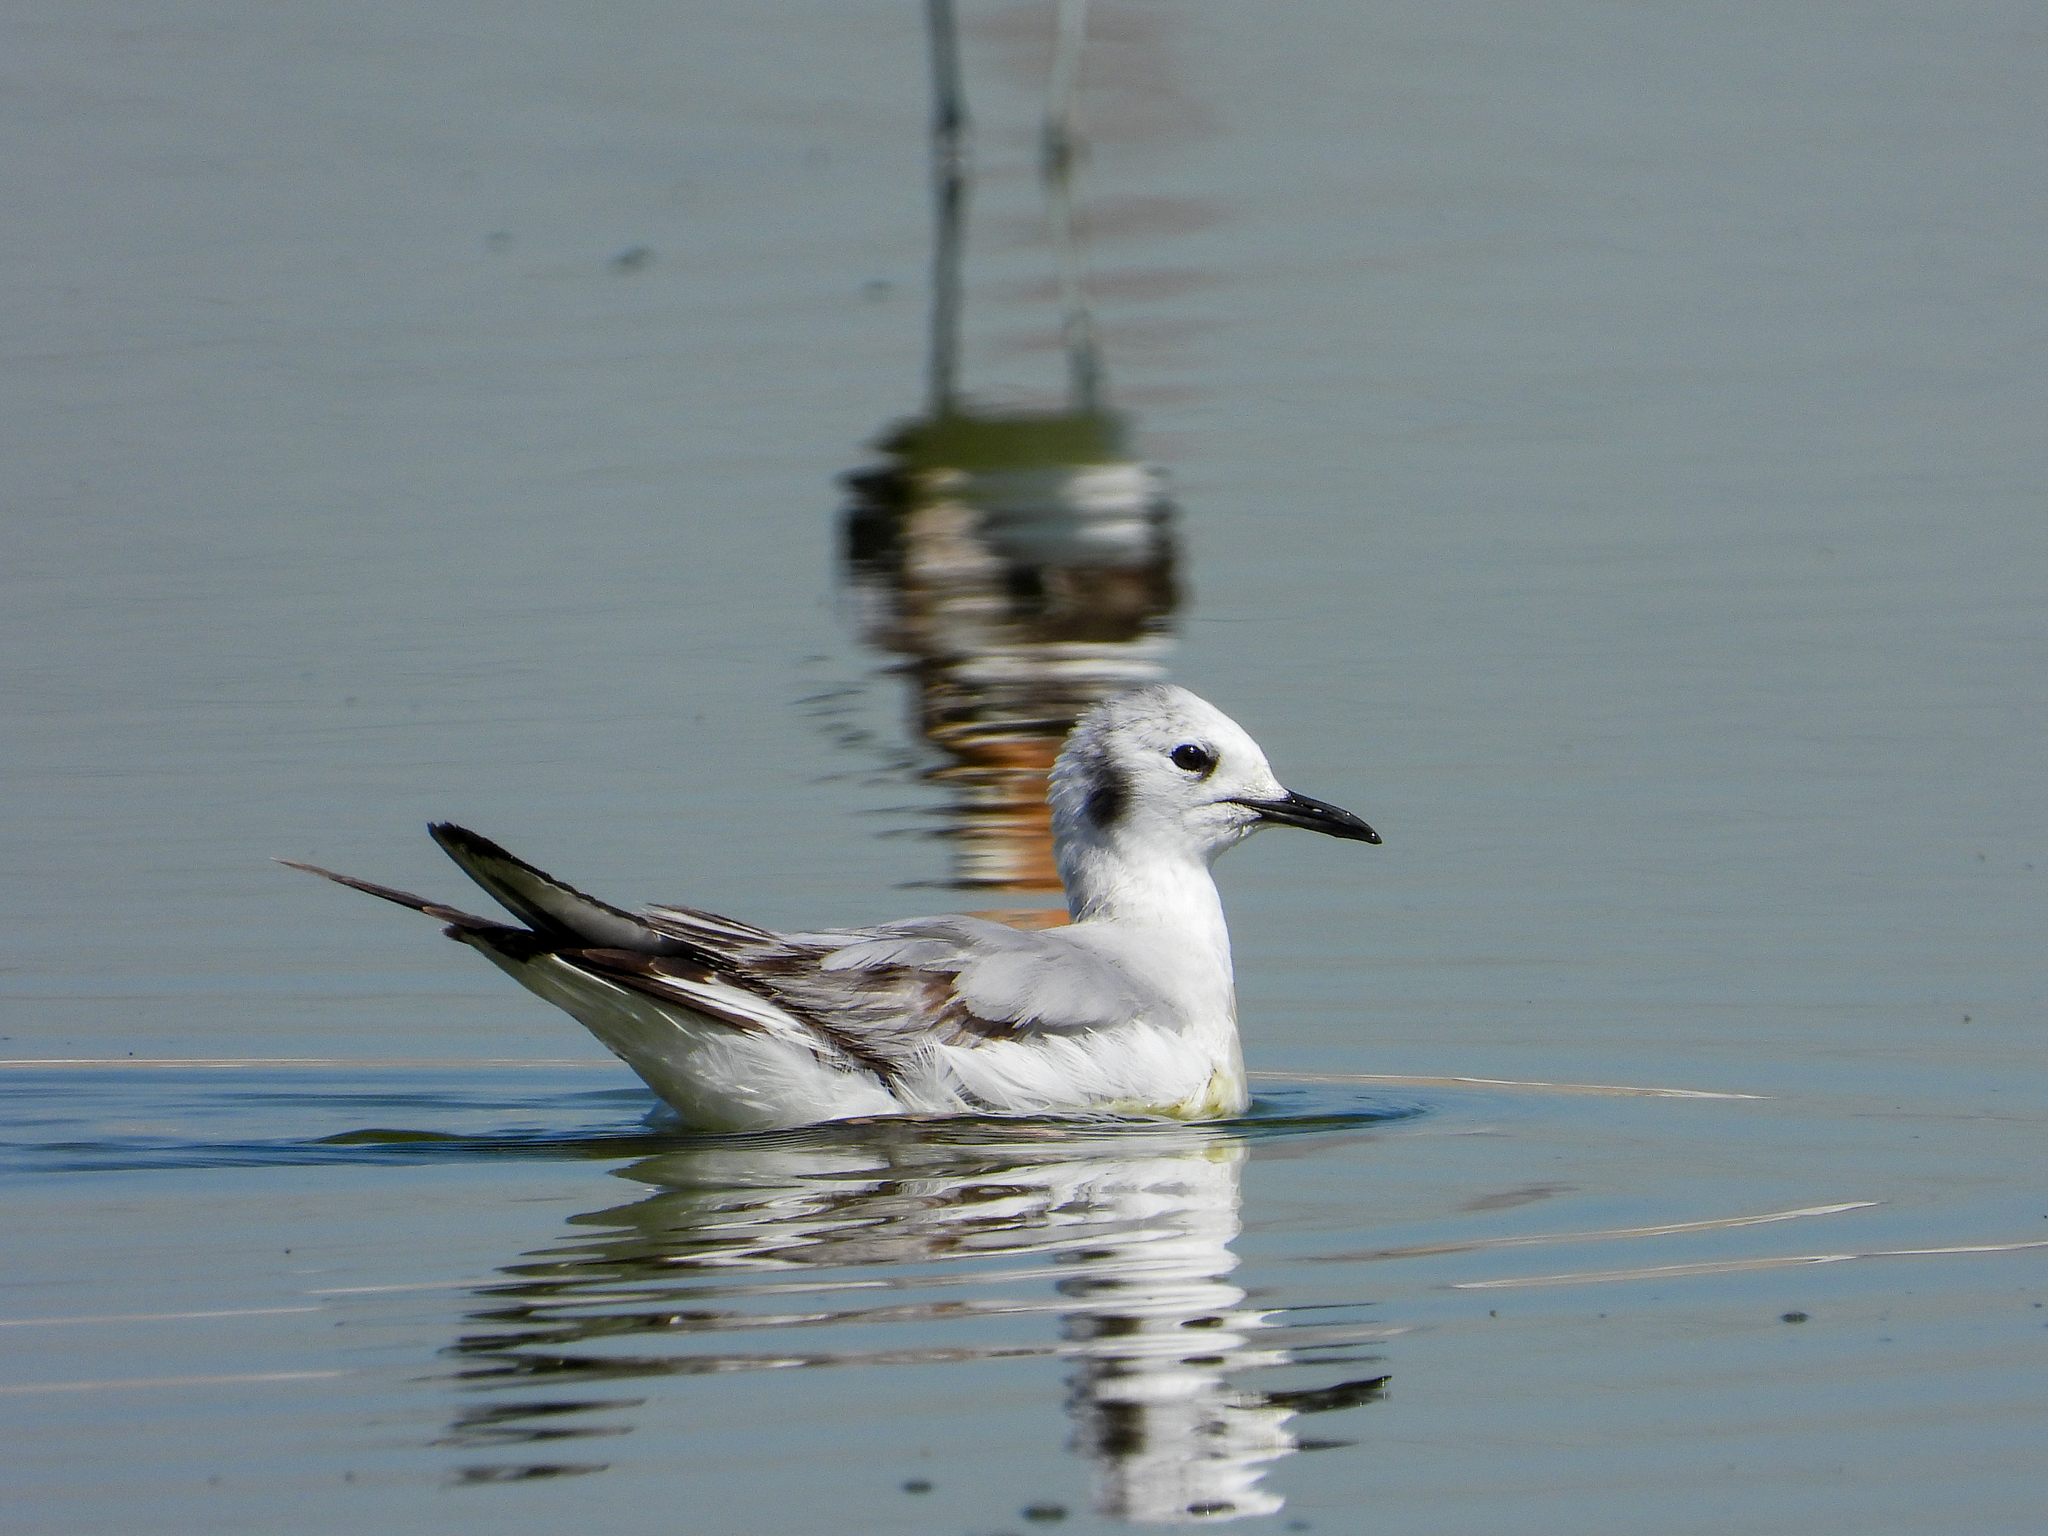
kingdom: Animalia
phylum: Chordata
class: Aves
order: Charadriiformes
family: Laridae
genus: Chroicocephalus
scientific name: Chroicocephalus philadelphia
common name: Bonaparte's gull
